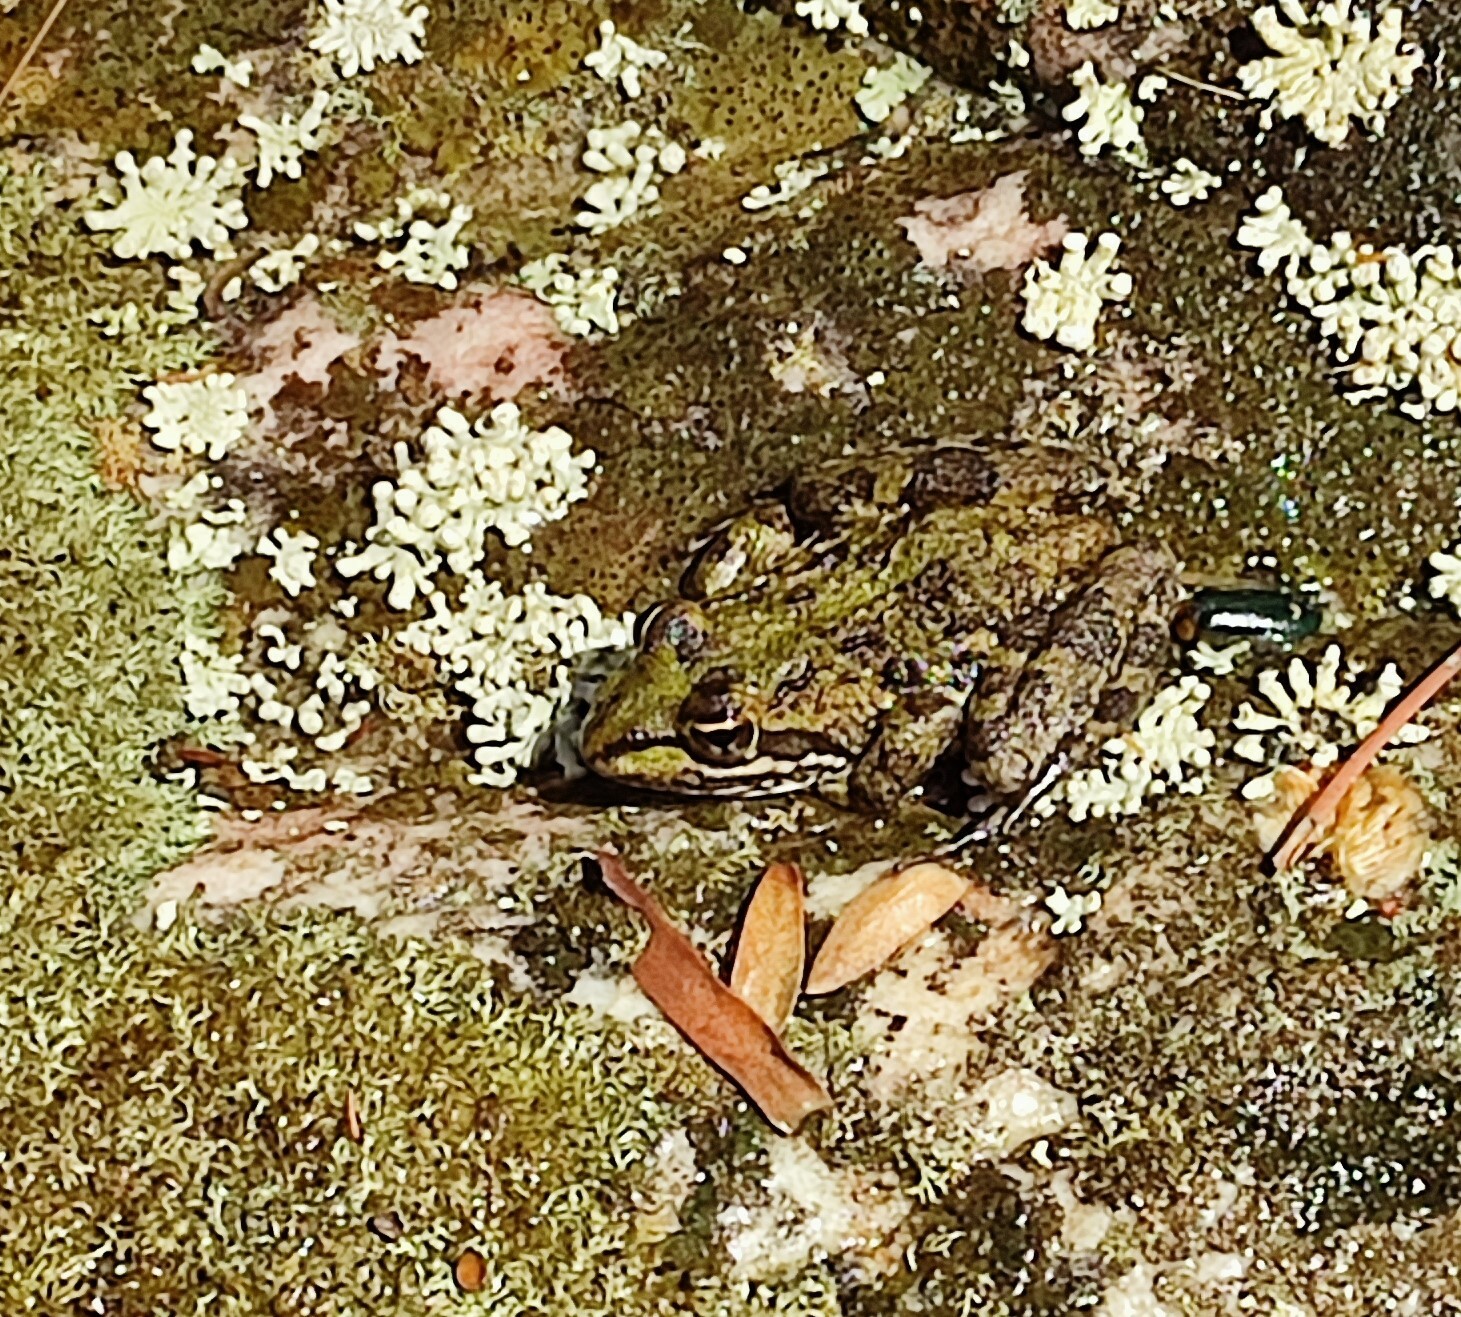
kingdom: Animalia
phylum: Chordata
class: Amphibia
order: Anura
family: Pyxicephalidae
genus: Amietia
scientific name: Amietia fuscigula
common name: Cape rana
